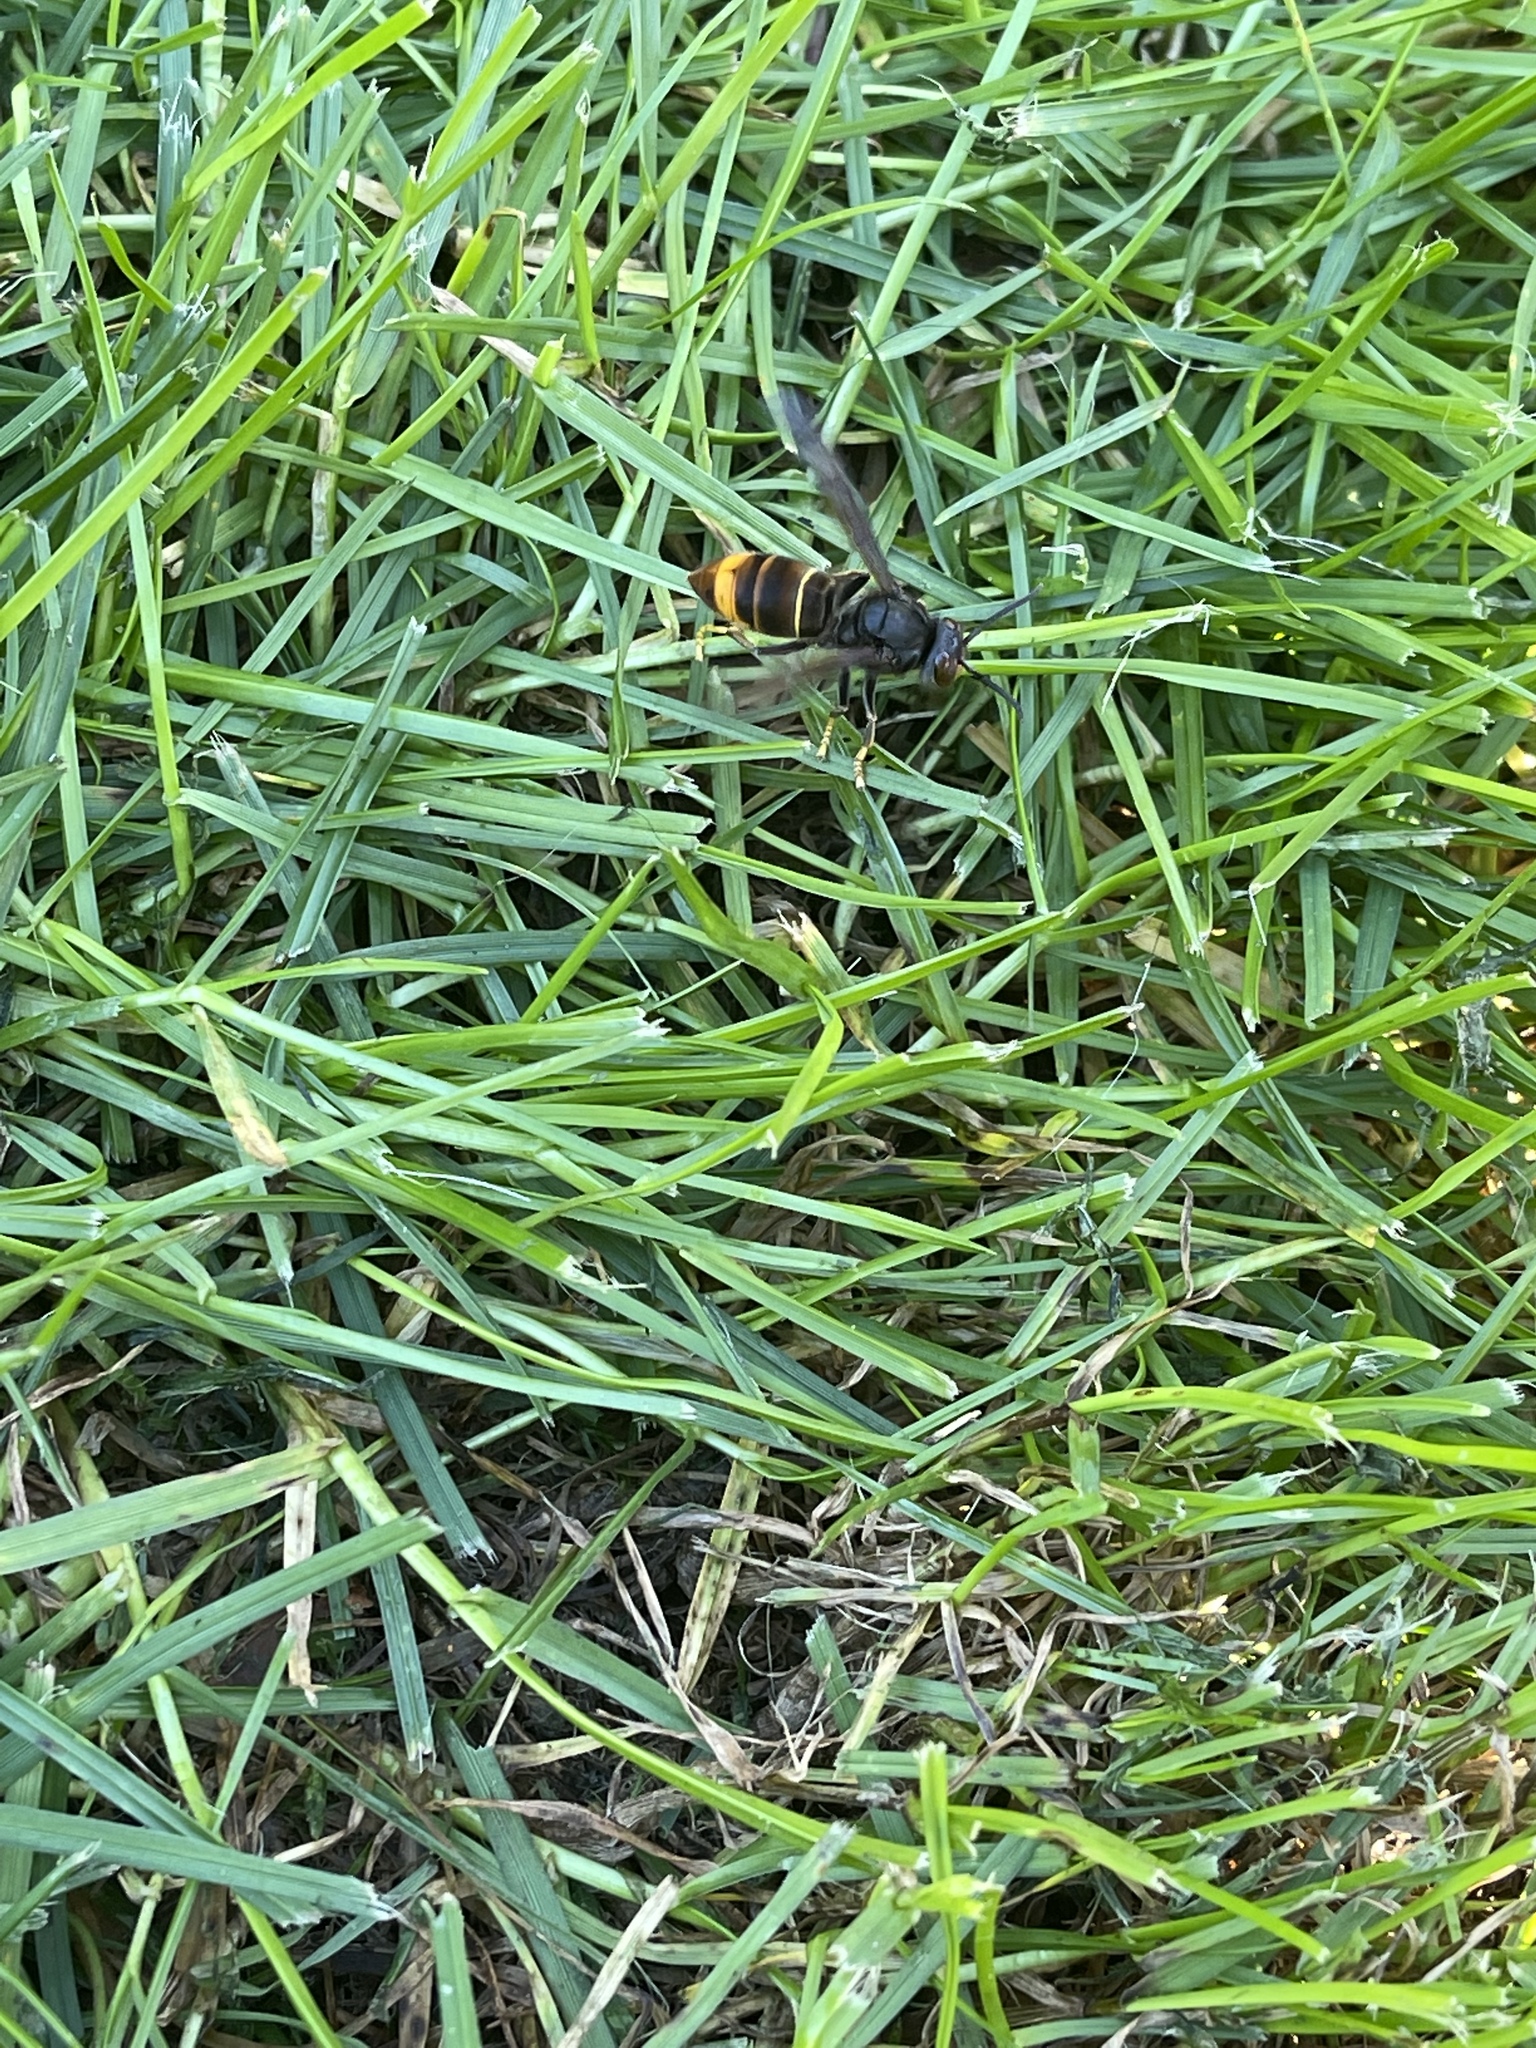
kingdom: Animalia
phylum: Arthropoda
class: Insecta
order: Hymenoptera
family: Vespidae
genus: Vespa
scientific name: Vespa velutina
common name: Asian hornet
